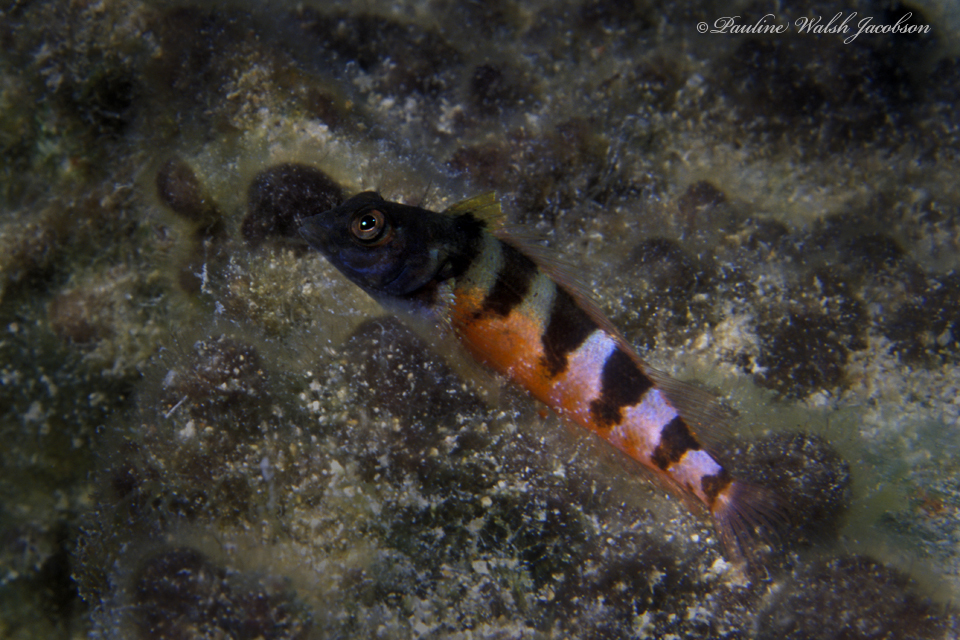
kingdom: Animalia
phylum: Chordata
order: Perciformes
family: Labrisomidae
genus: Malacoctenus
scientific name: Malacoctenus triangulatus
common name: Saddled blenny
